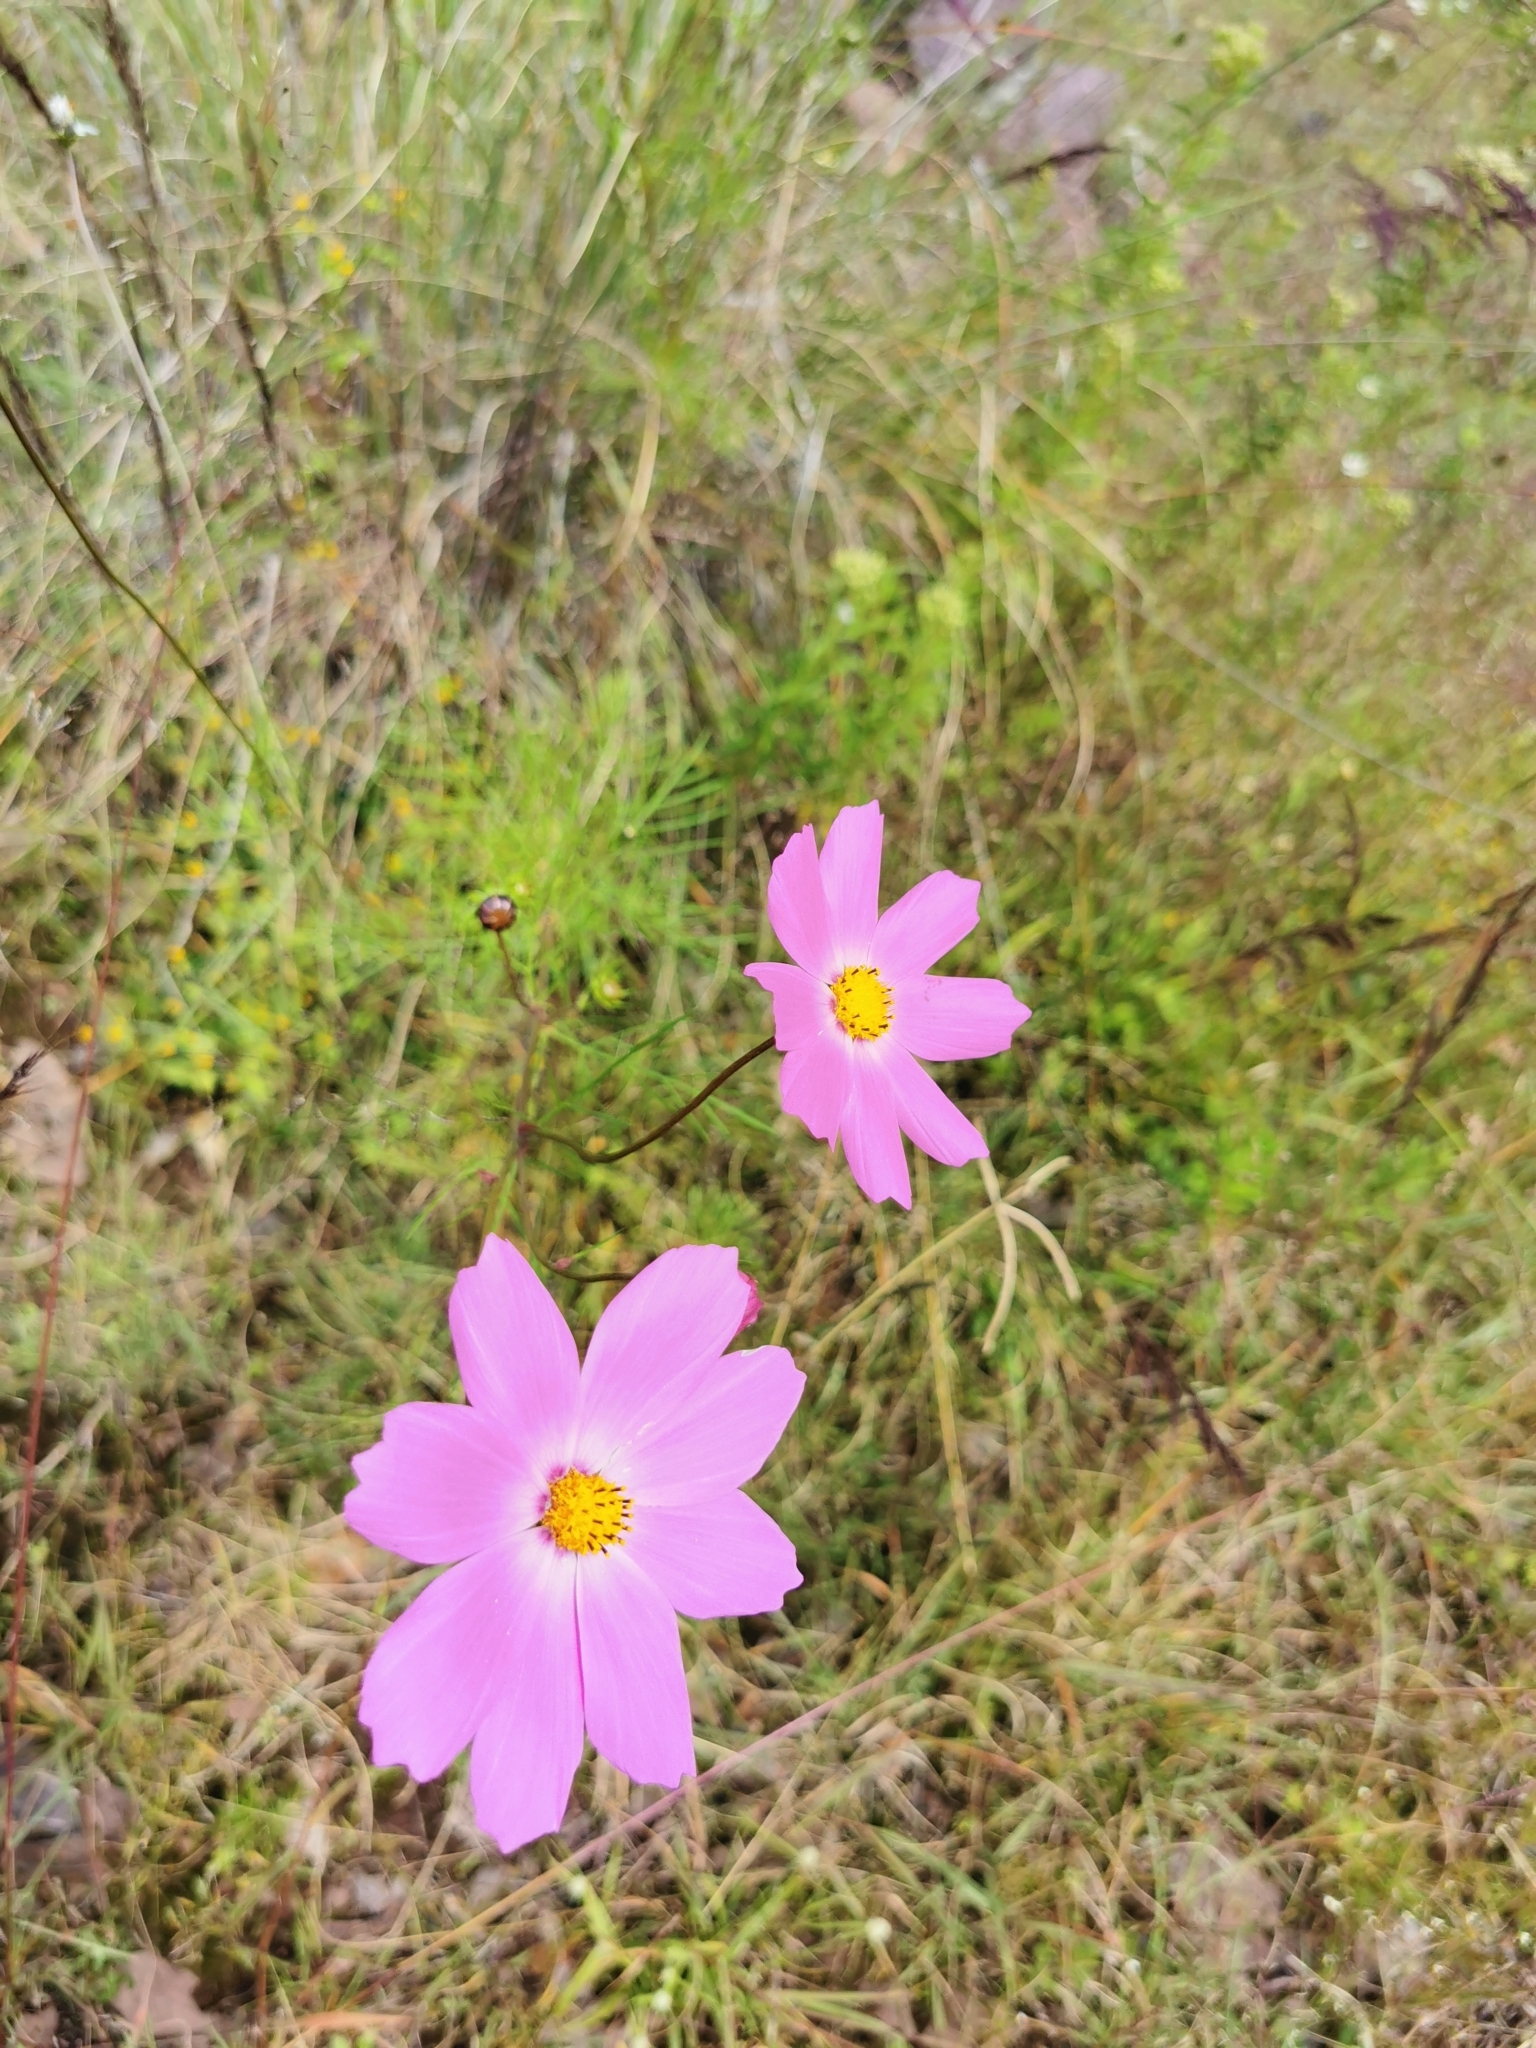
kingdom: Plantae
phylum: Tracheophyta
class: Magnoliopsida
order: Asterales
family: Asteraceae
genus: Cosmos
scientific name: Cosmos bipinnatus
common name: Garden cosmos
